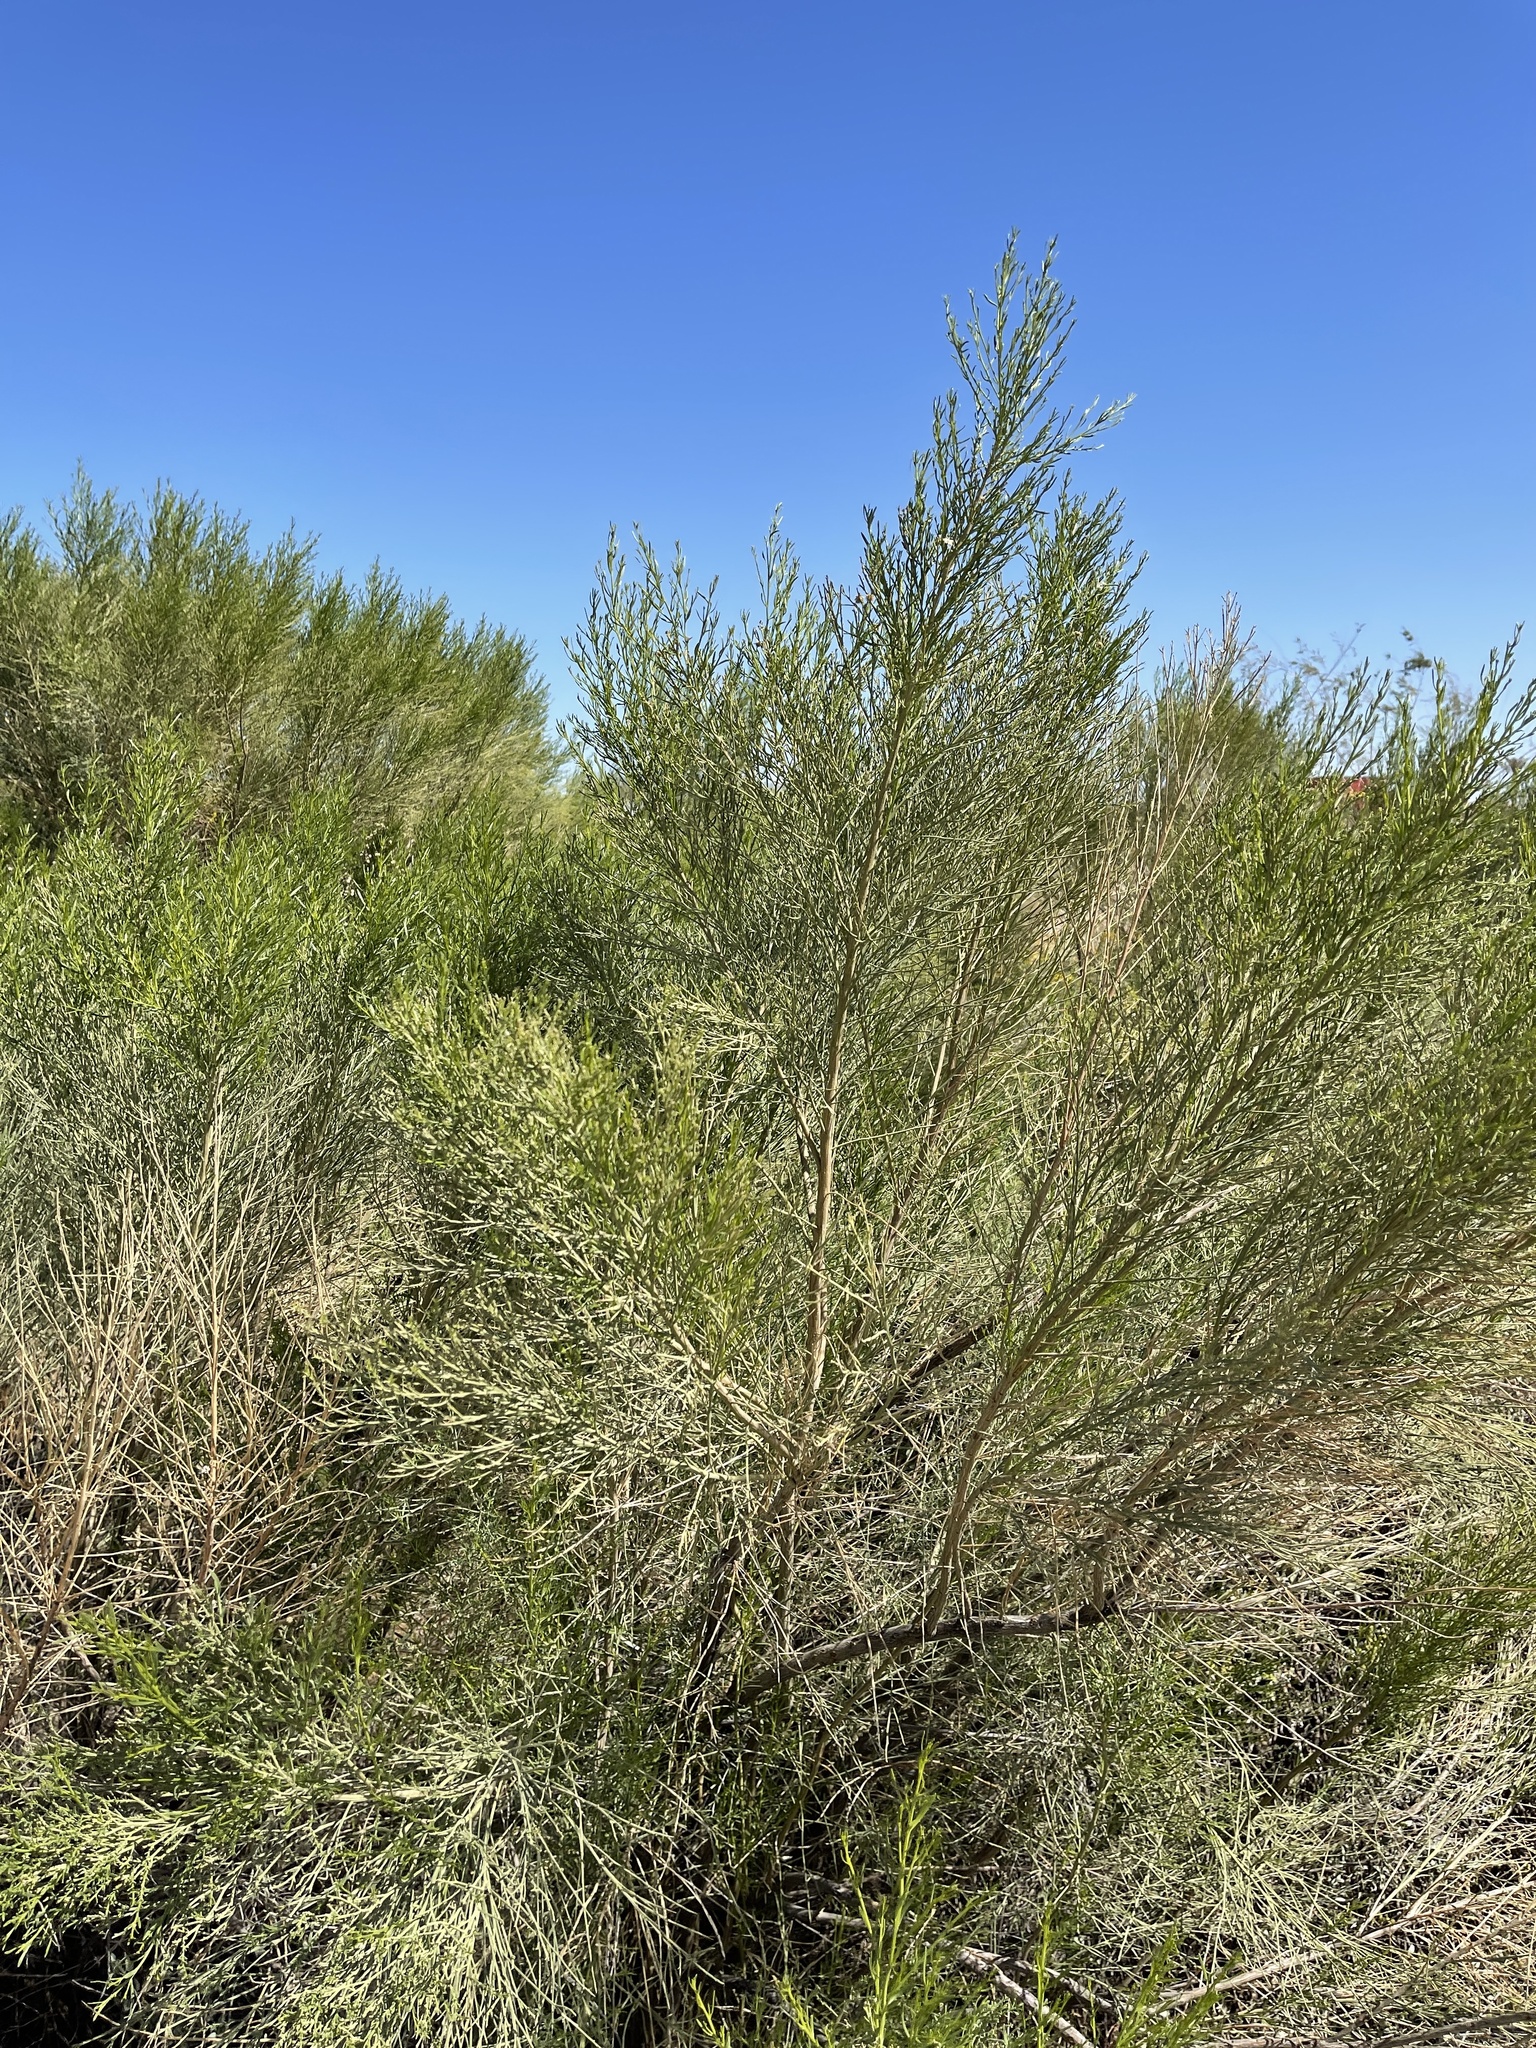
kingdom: Plantae
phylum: Tracheophyta
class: Magnoliopsida
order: Asterales
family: Asteraceae
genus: Baccharis
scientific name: Baccharis sarothroides
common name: Desert-broom
